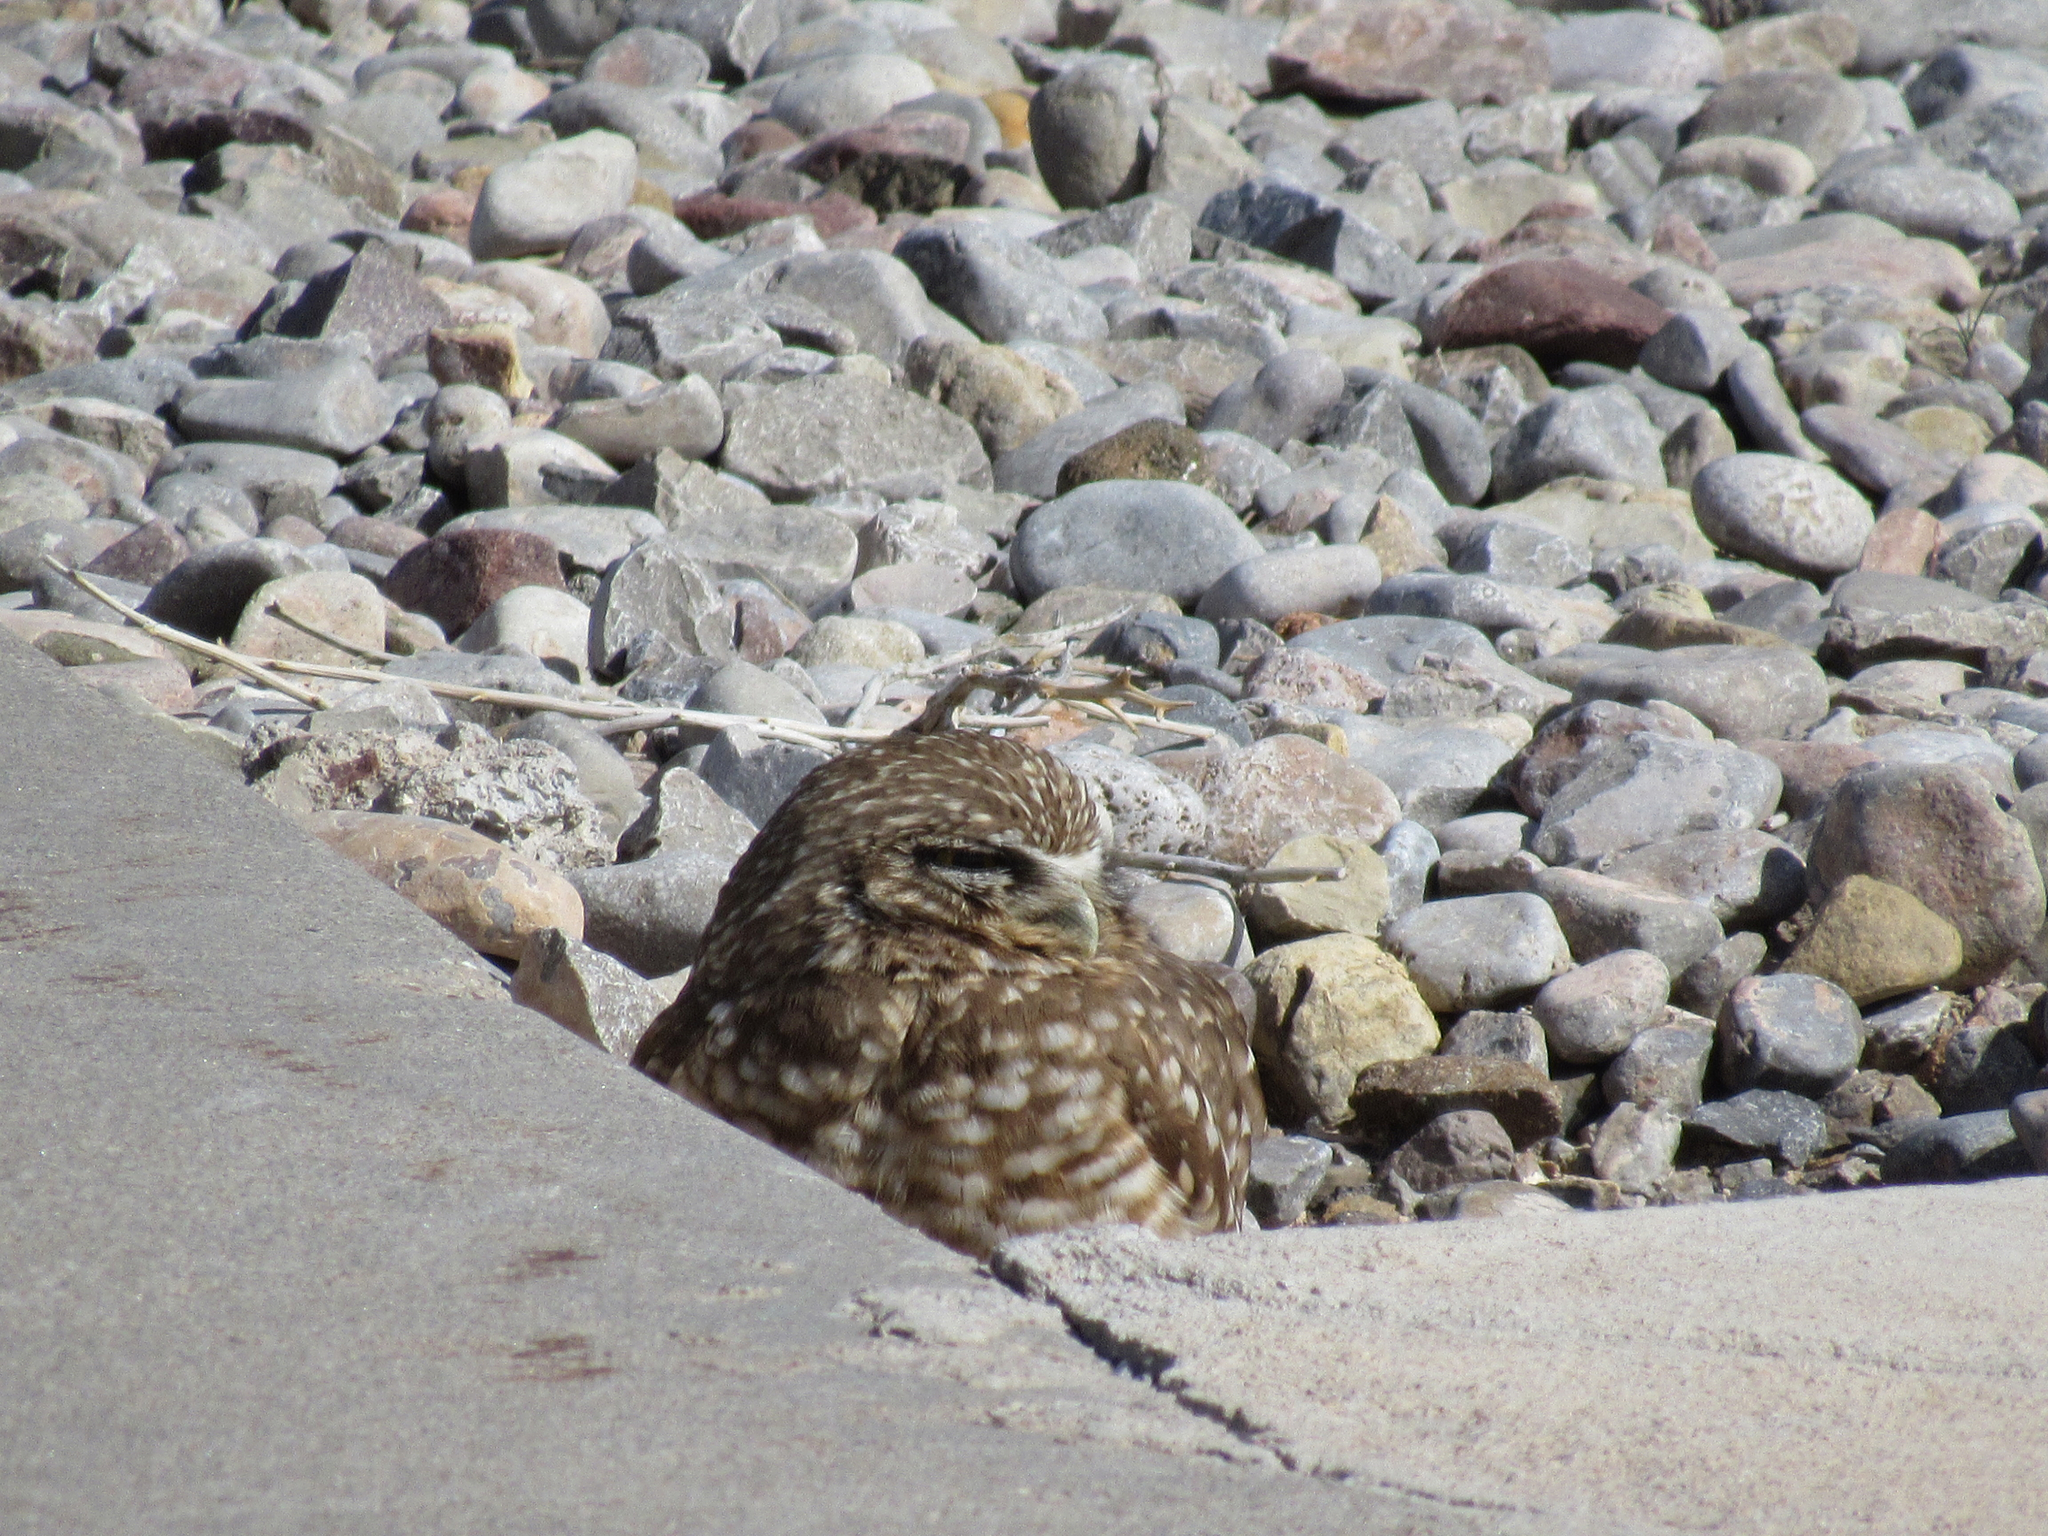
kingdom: Animalia
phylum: Chordata
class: Aves
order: Strigiformes
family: Strigidae
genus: Athene
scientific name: Athene cunicularia
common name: Burrowing owl
